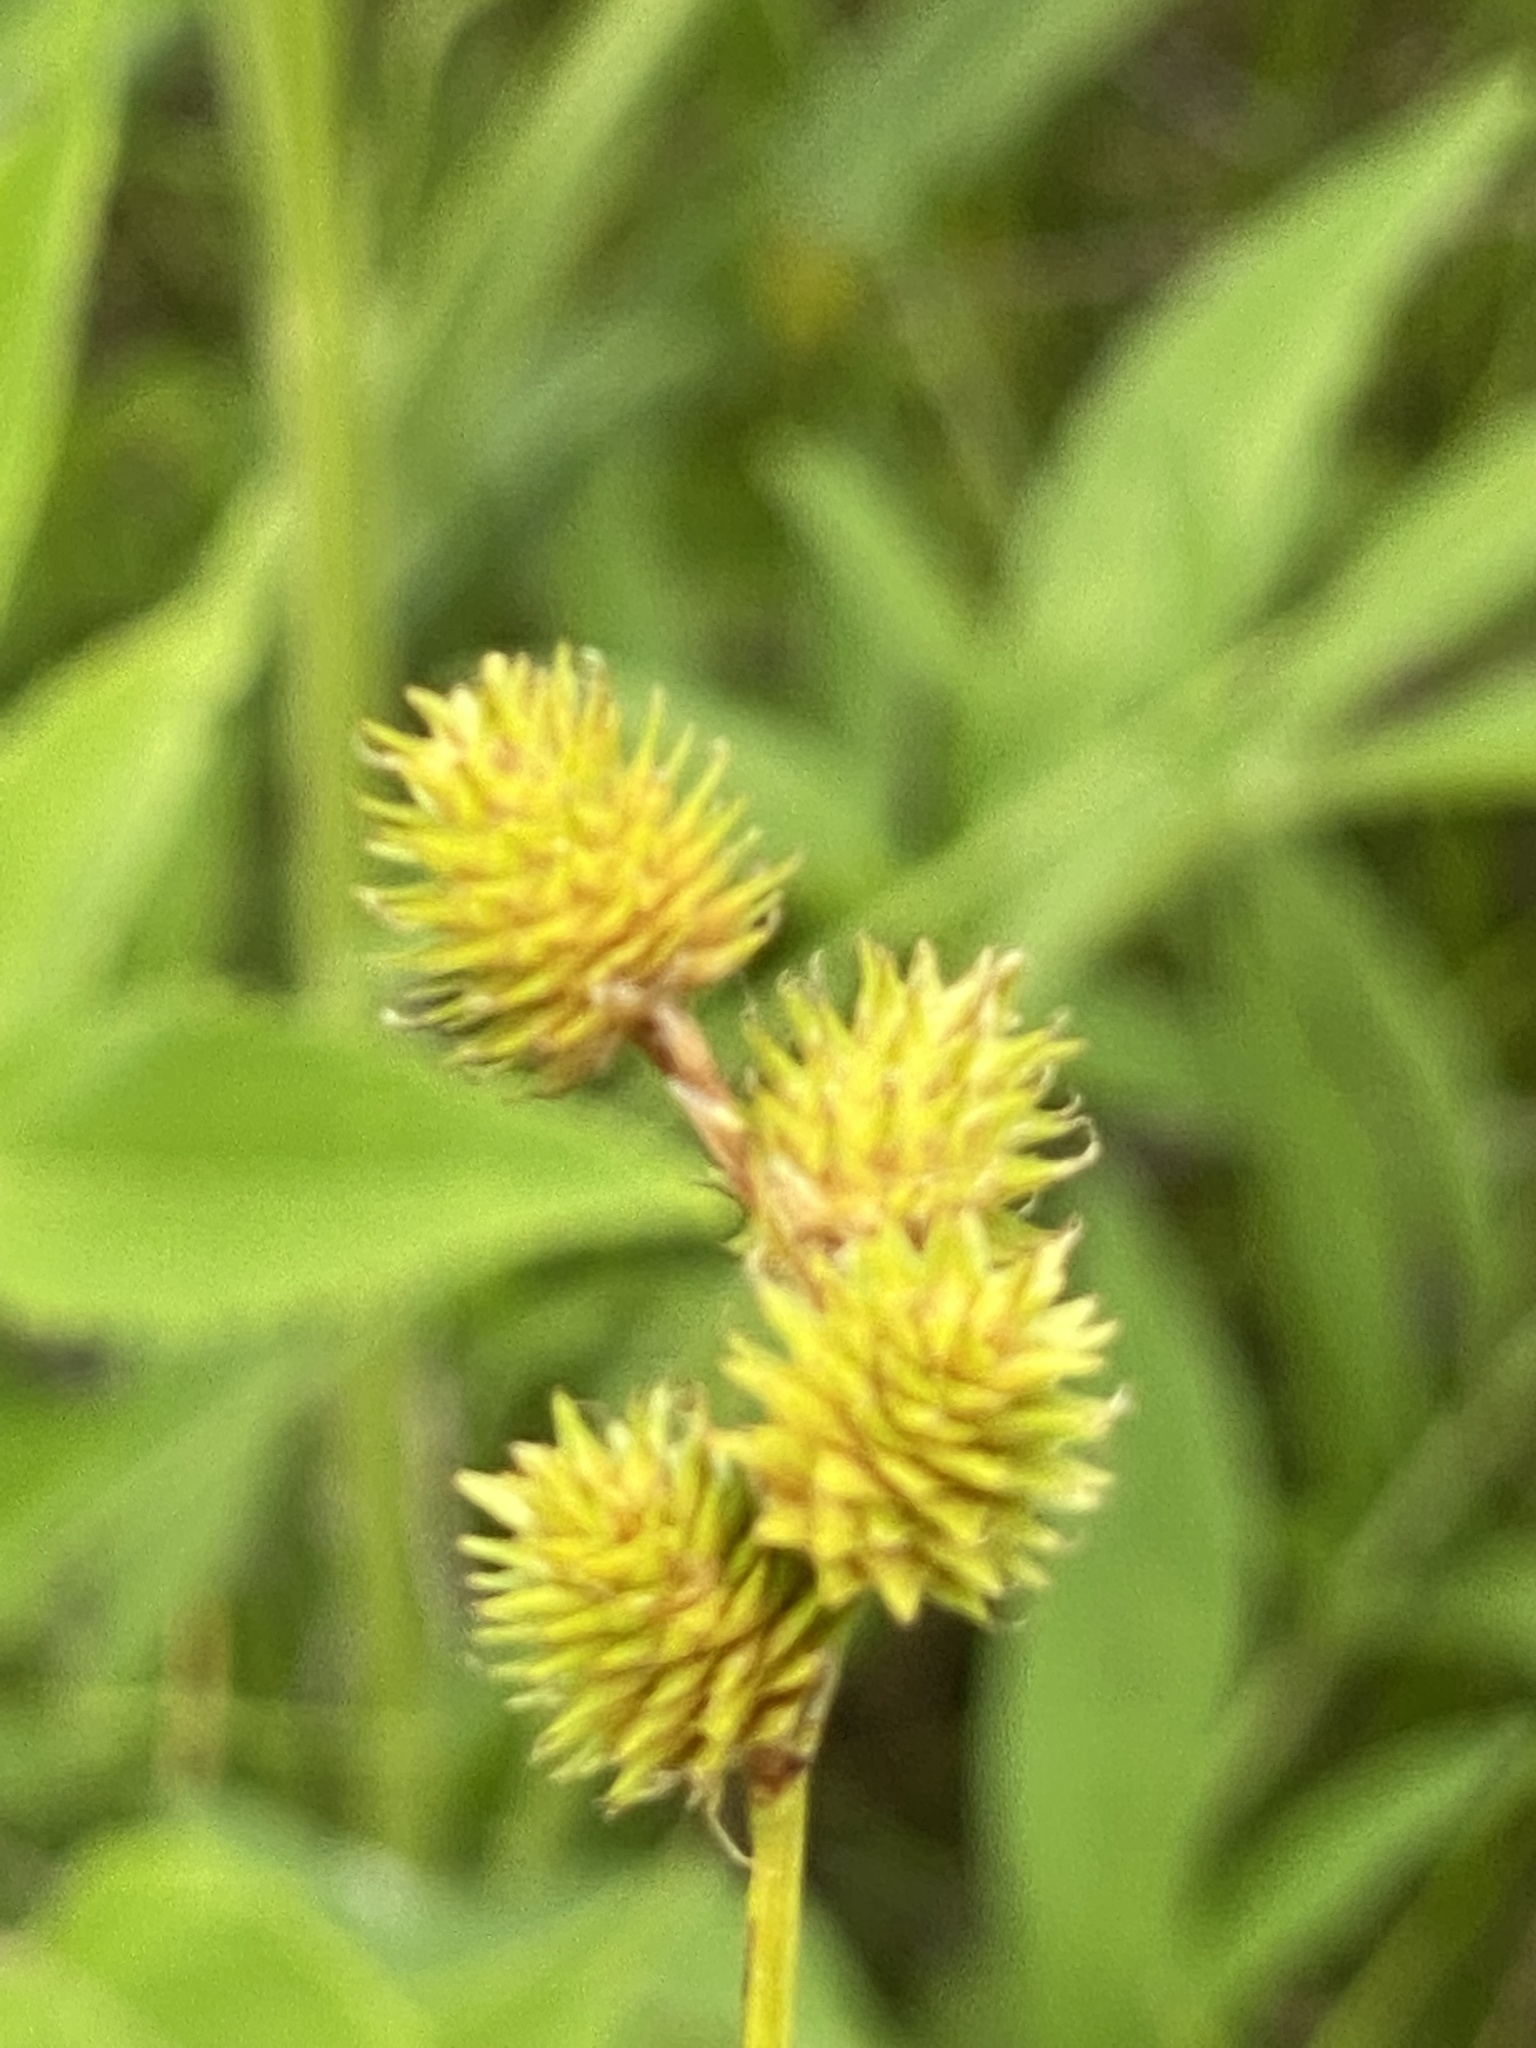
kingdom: Plantae
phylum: Tracheophyta
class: Liliopsida
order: Poales
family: Cyperaceae
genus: Carex
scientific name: Carex cristatella
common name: Crested oval sedge
